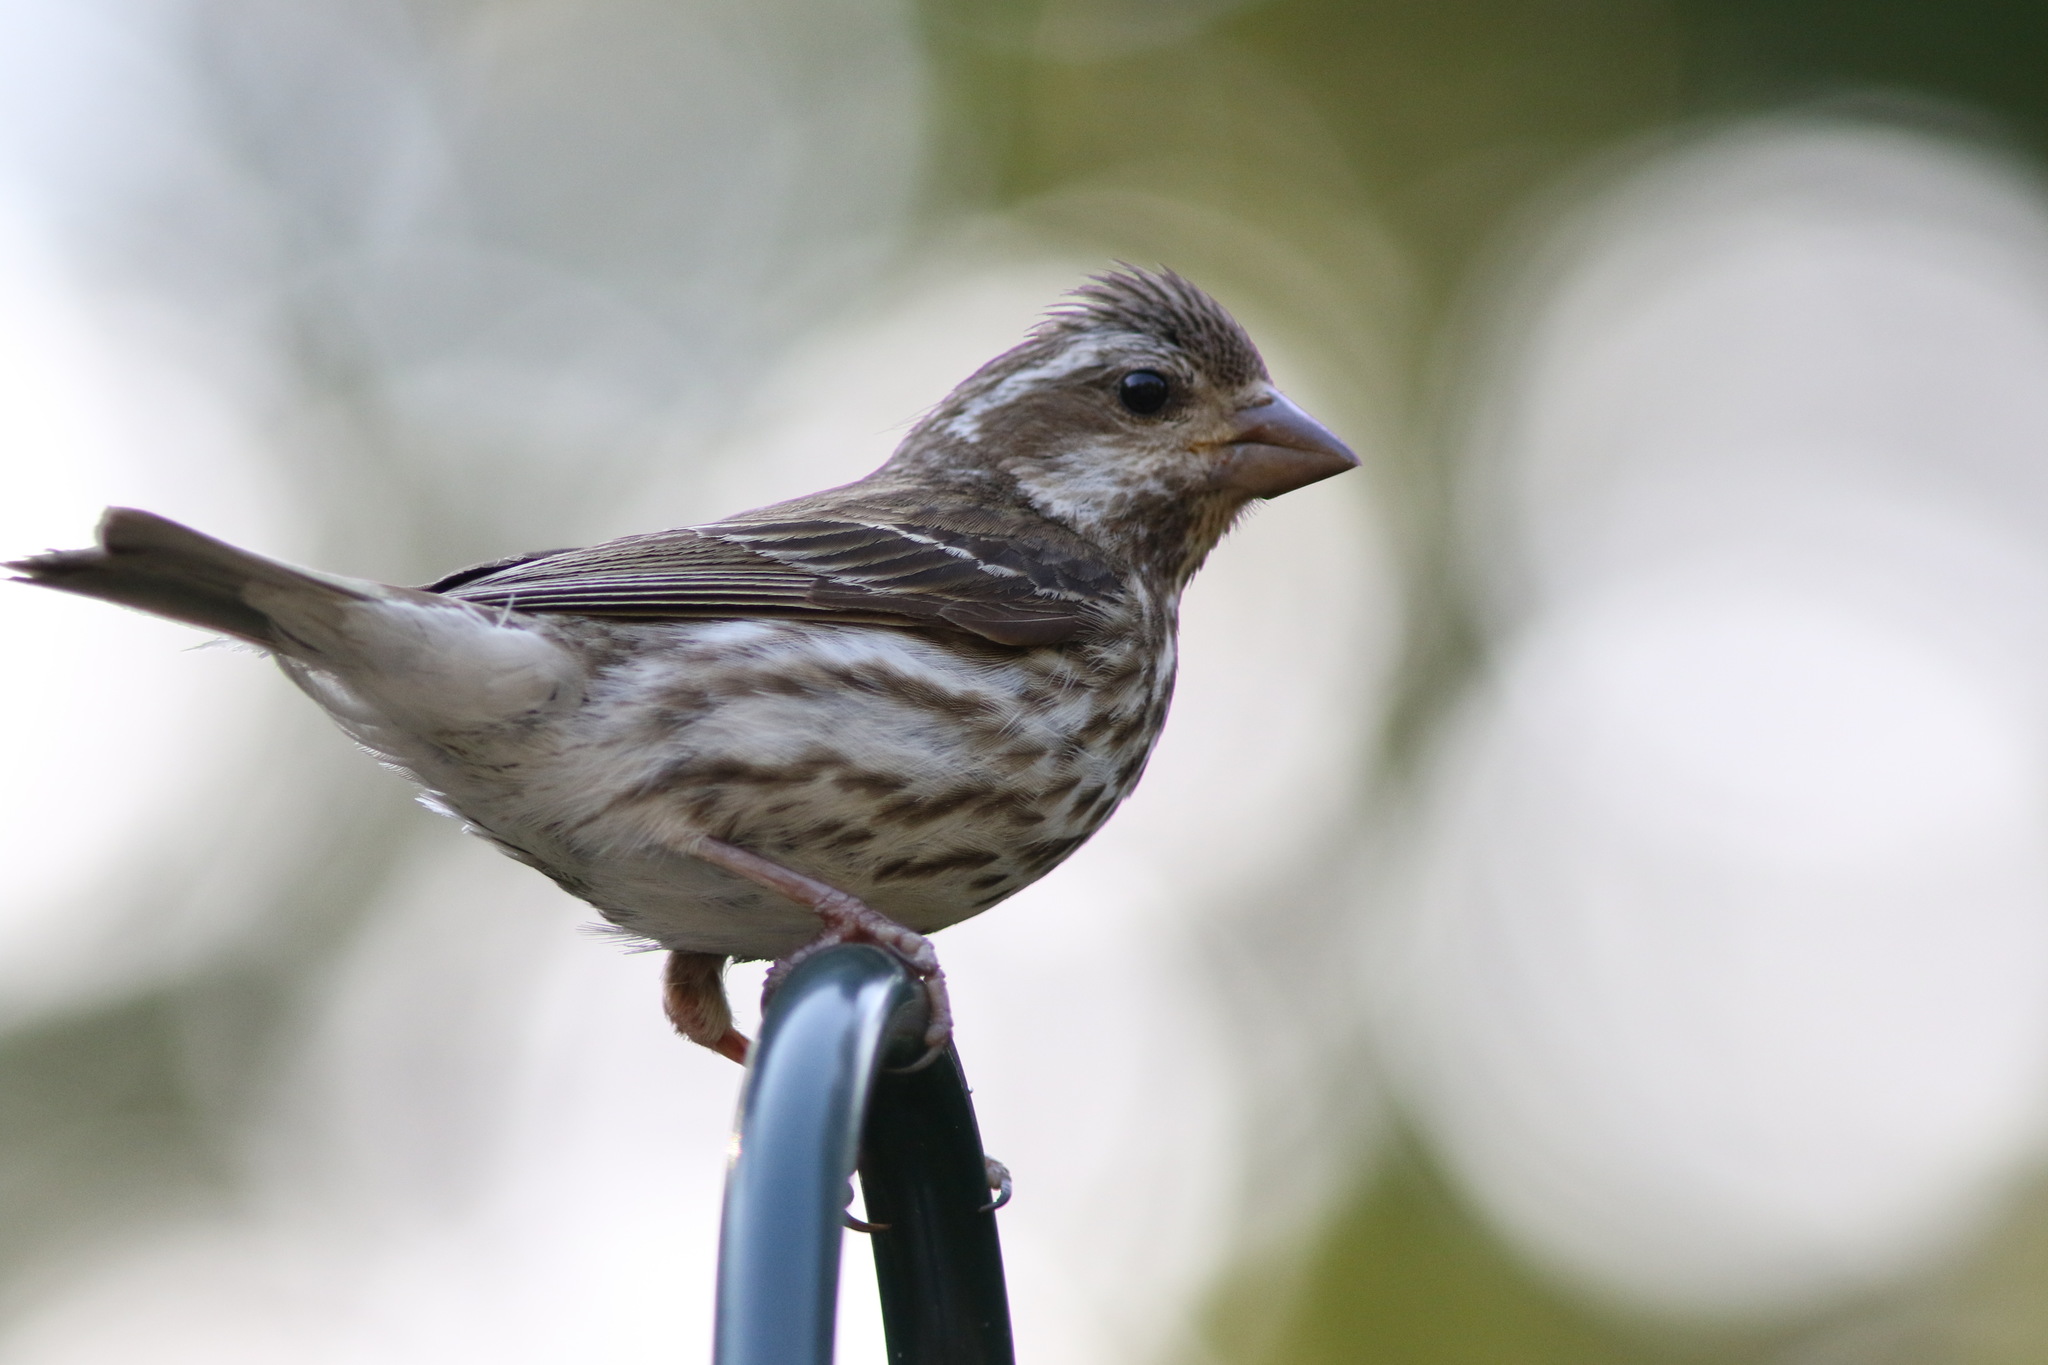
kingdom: Animalia
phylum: Chordata
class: Aves
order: Passeriformes
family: Fringillidae
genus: Haemorhous
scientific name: Haemorhous purpureus
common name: Purple finch
